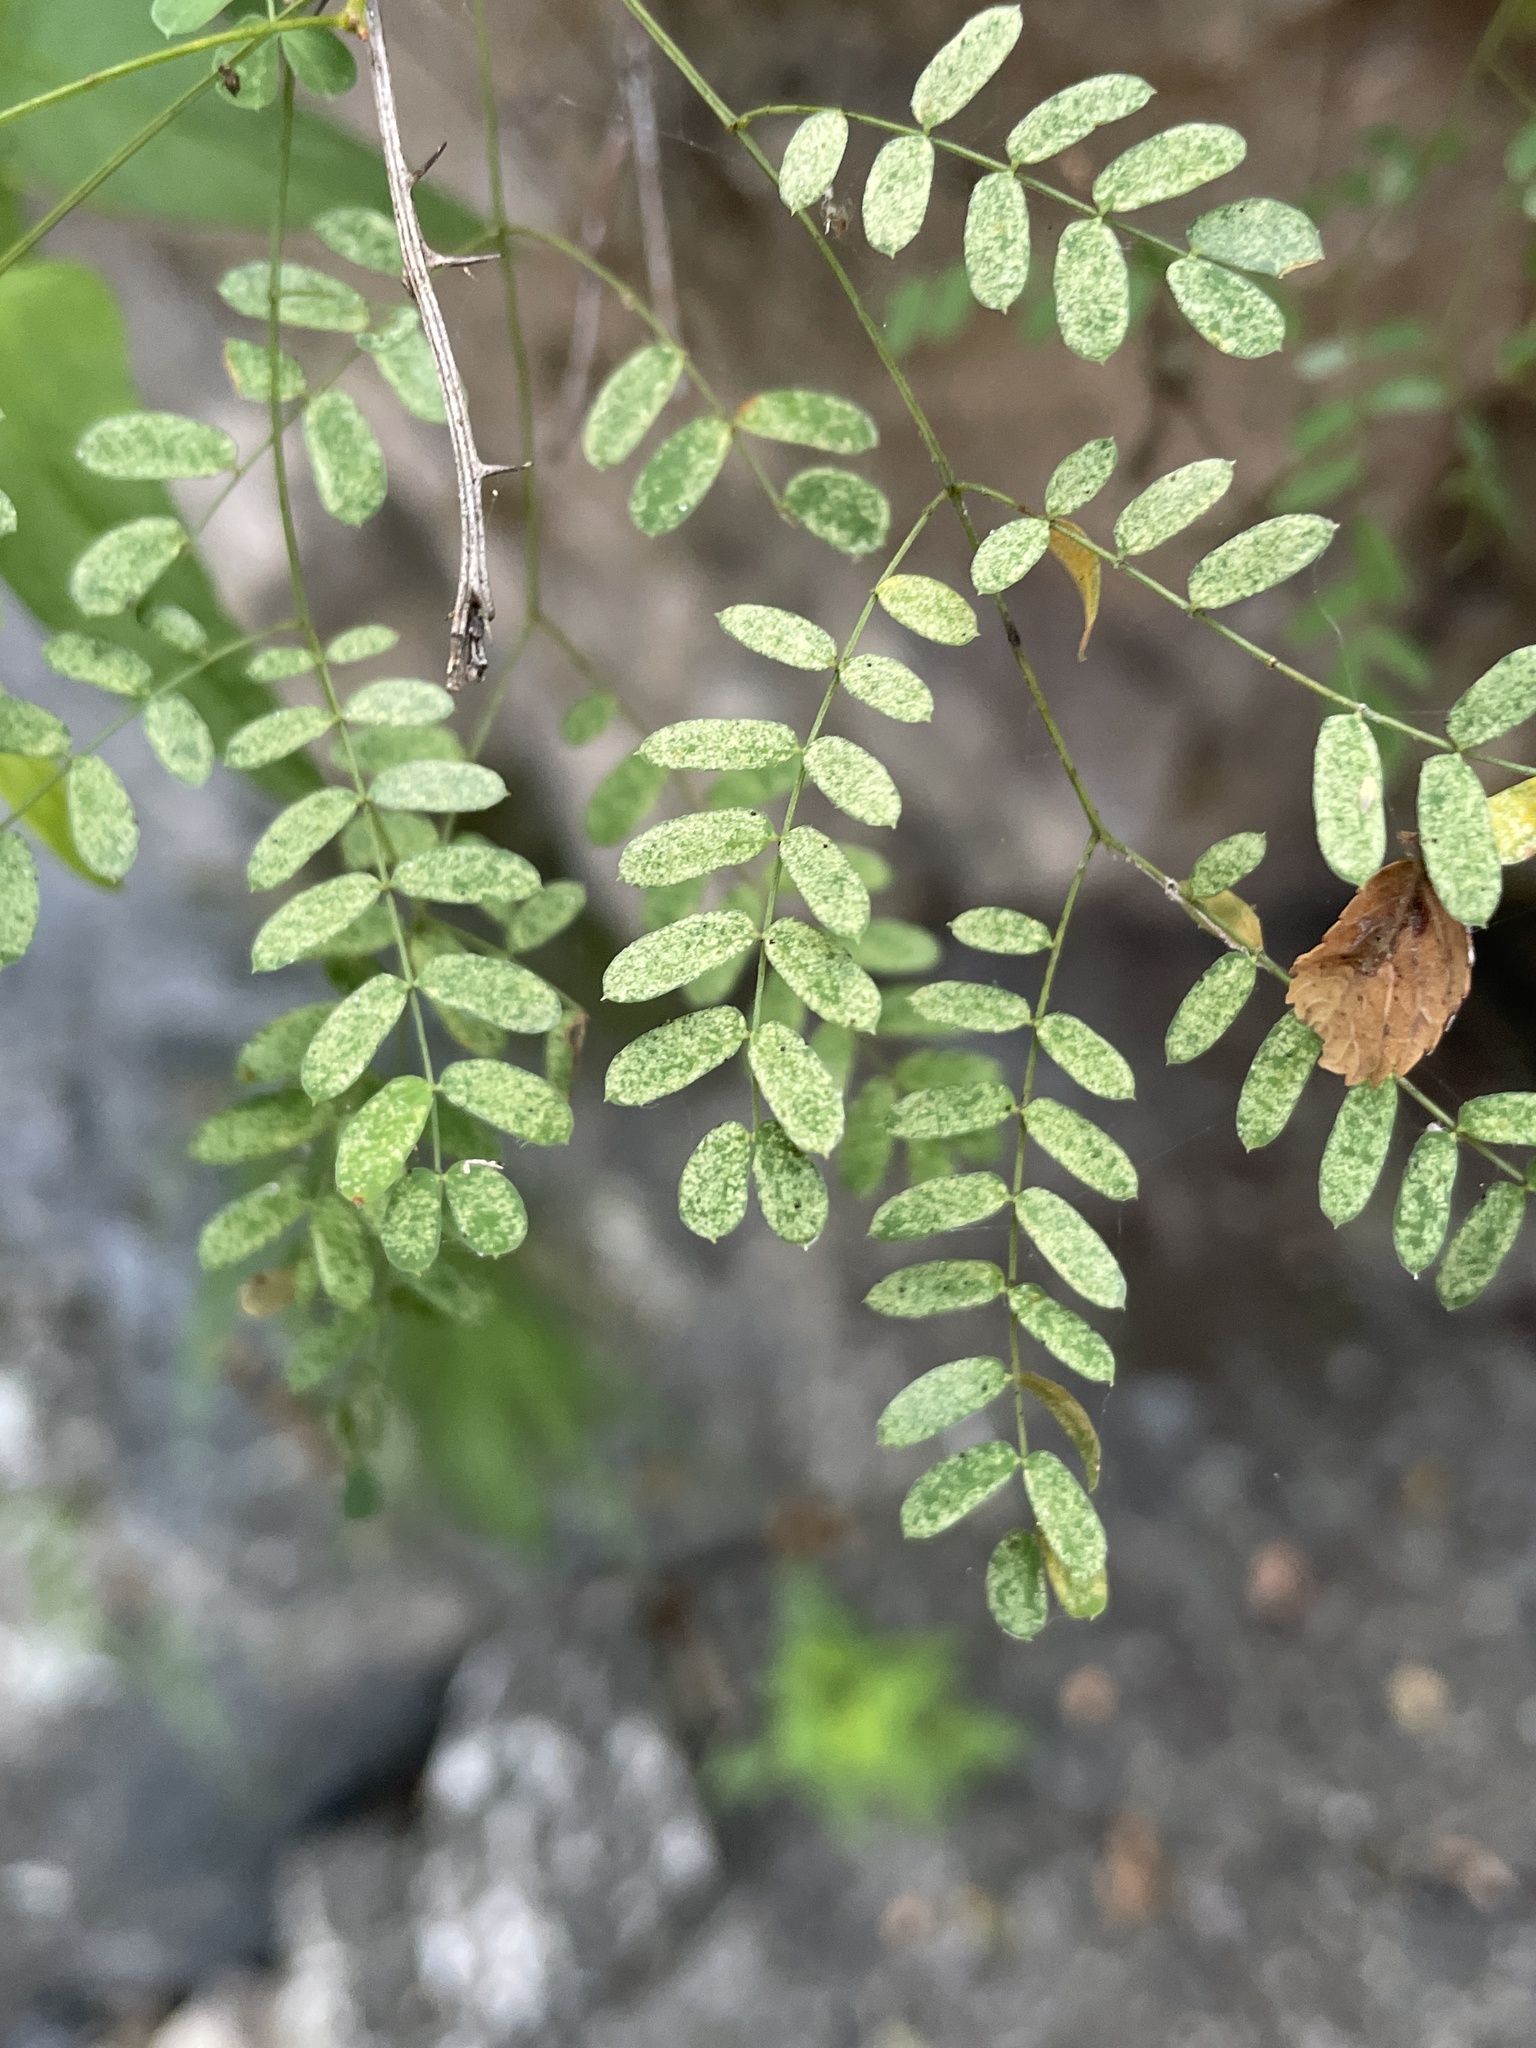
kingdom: Plantae
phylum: Tracheophyta
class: Magnoliopsida
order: Fabales
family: Fabaceae
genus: Senegalia
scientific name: Senegalia roemeriana
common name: Roemer's acacia
